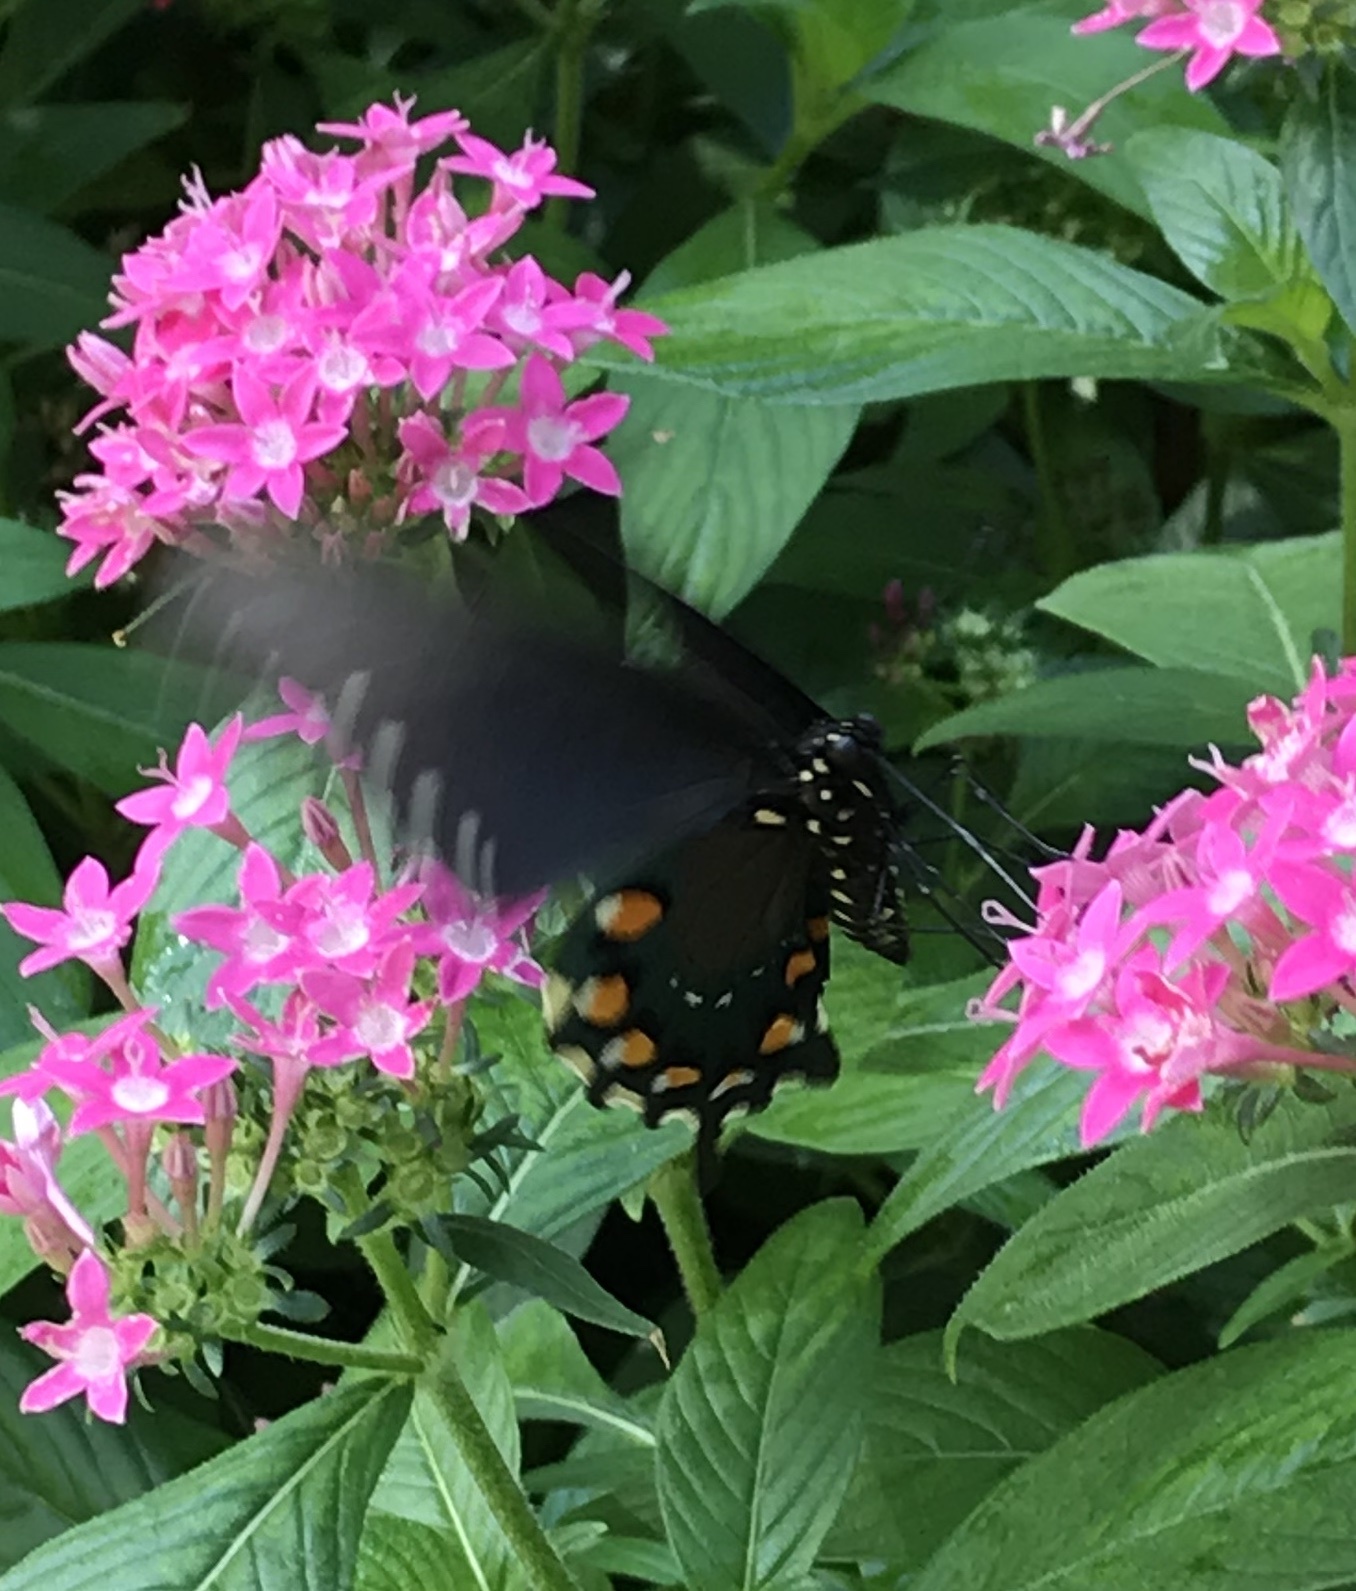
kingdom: Animalia
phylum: Arthropoda
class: Insecta
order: Lepidoptera
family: Papilionidae
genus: Battus
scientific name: Battus philenor
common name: Pipevine swallowtail
